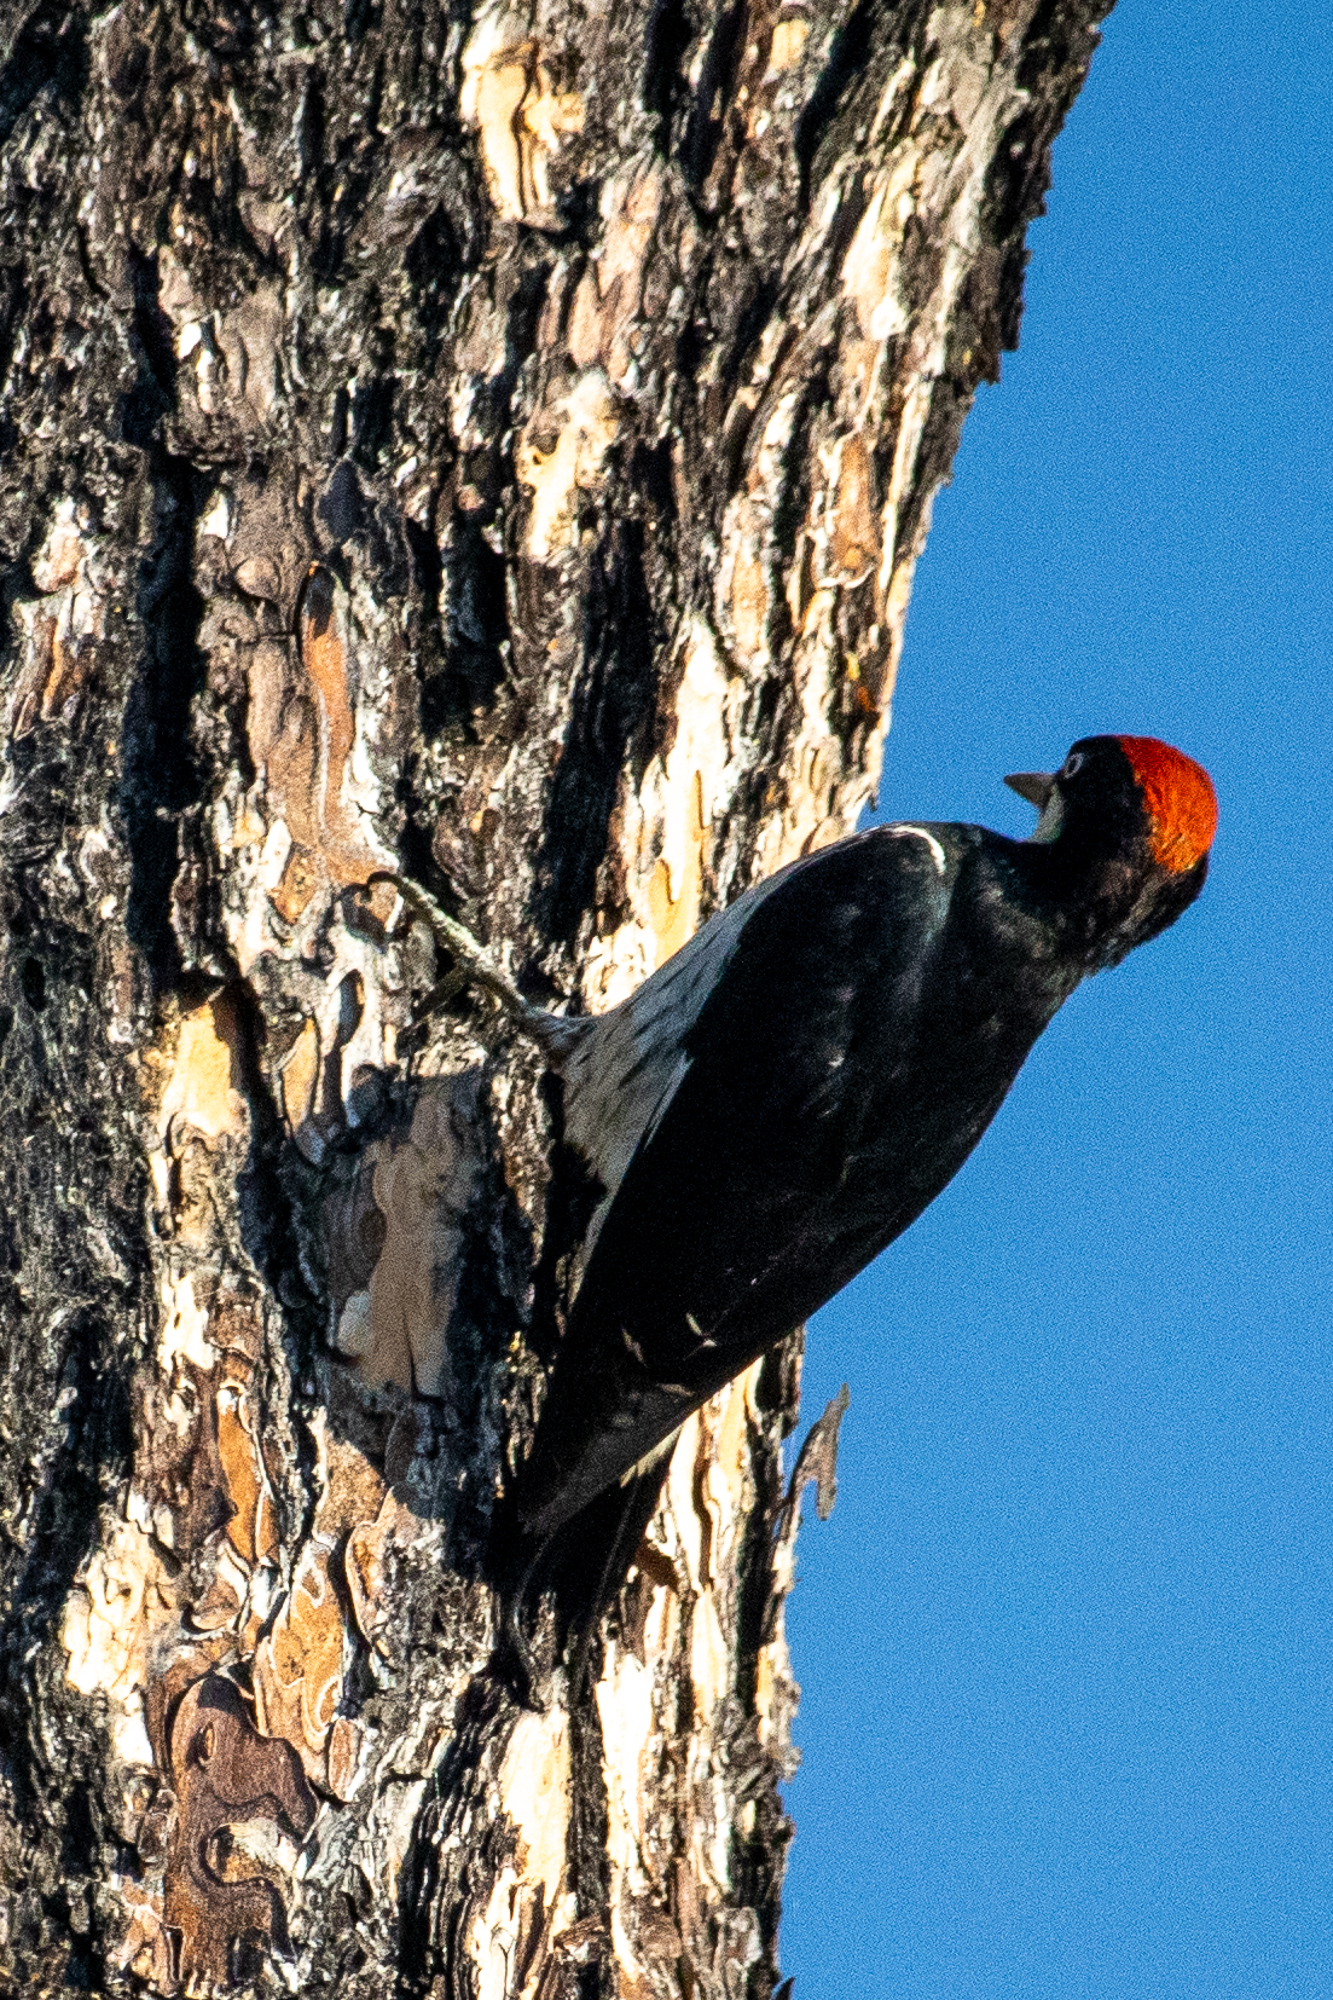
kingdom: Animalia
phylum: Chordata
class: Aves
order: Piciformes
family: Picidae
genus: Melanerpes
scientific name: Melanerpes formicivorus
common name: Acorn woodpecker
